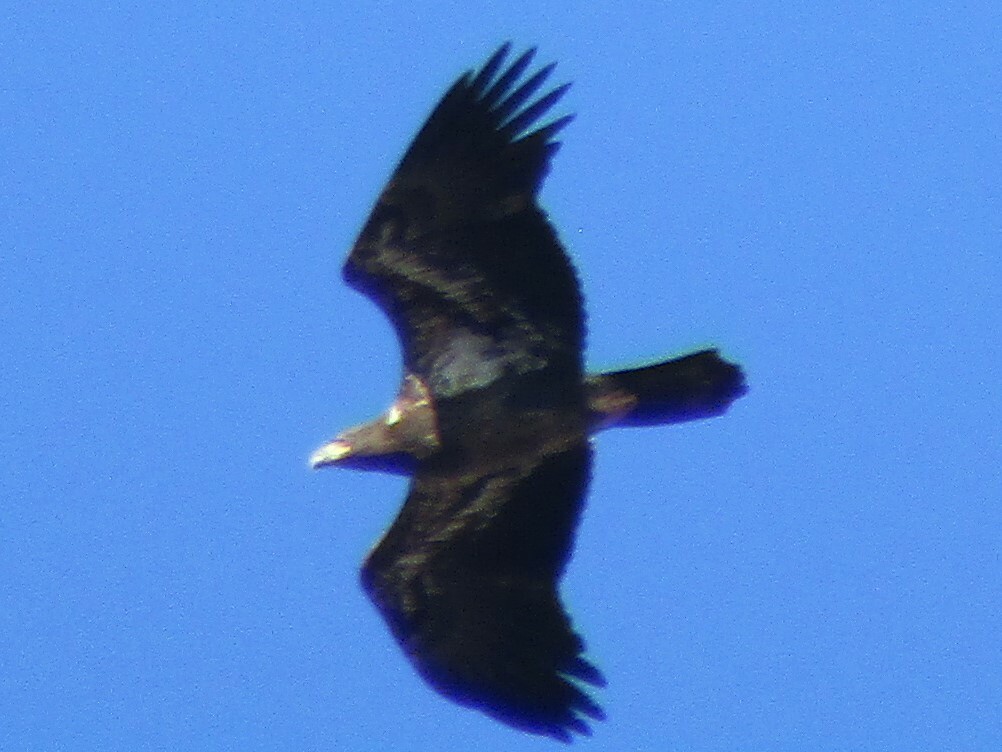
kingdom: Animalia
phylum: Chordata
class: Aves
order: Accipitriformes
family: Accipitridae
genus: Haliaeetus
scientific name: Haliaeetus leucocephalus
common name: Bald eagle
